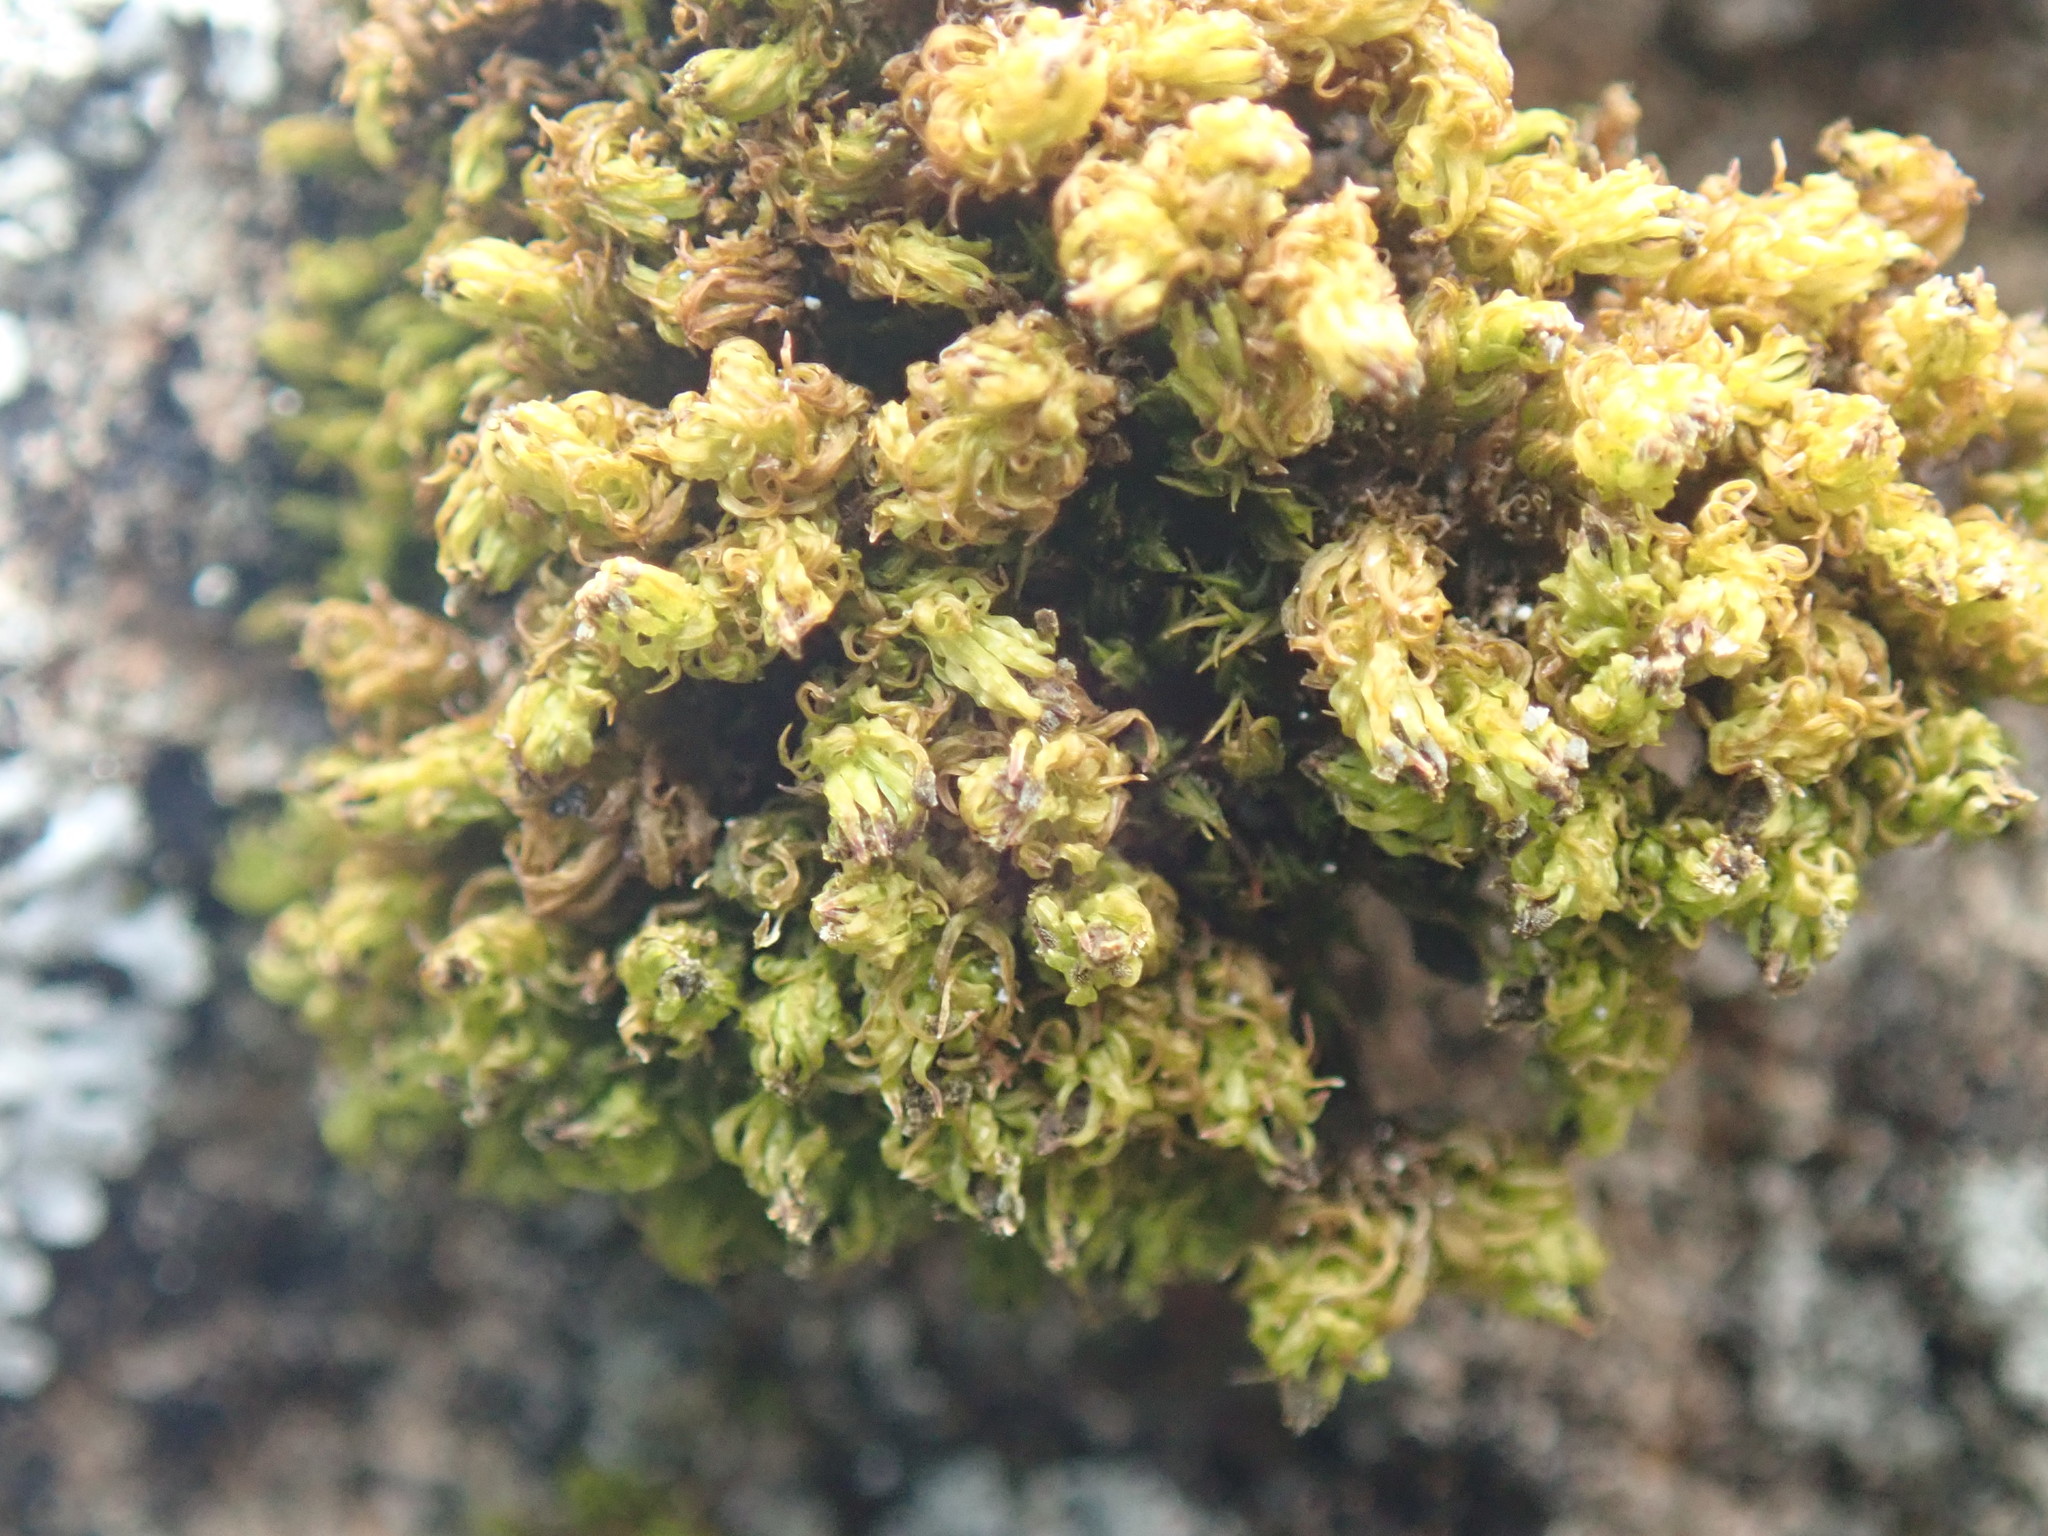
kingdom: Plantae
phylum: Bryophyta
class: Bryopsida
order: Orthotrichales
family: Orthotrichaceae
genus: Plenogemma
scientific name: Plenogemma phyllantha
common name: Frizzled pincushion
